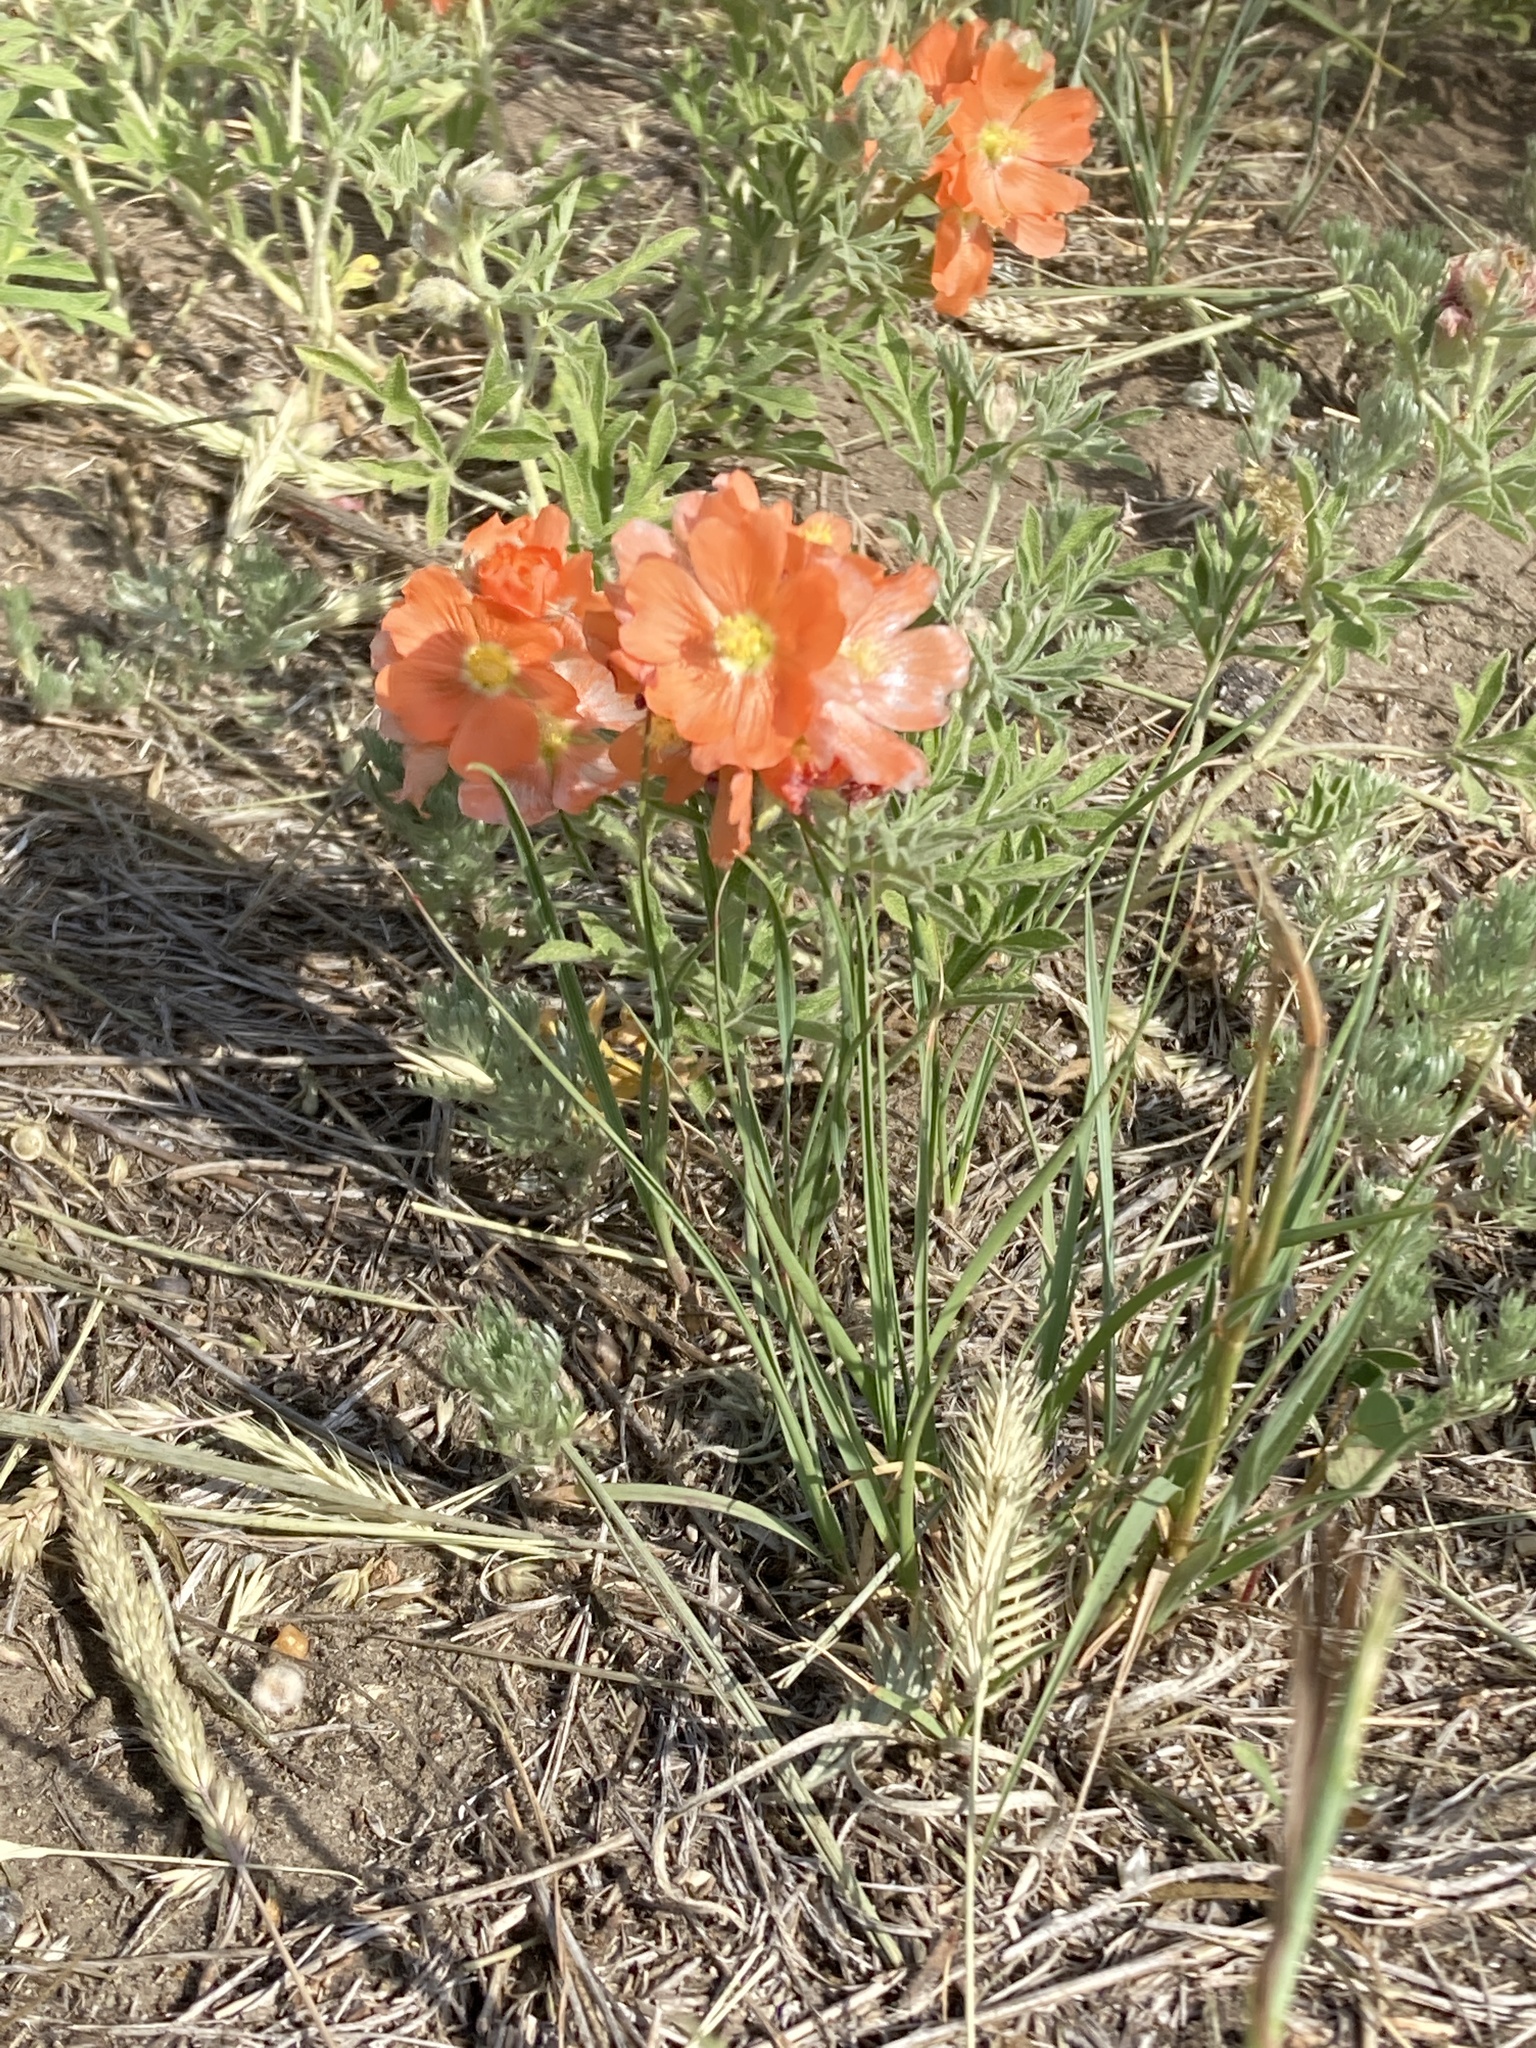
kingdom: Plantae
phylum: Tracheophyta
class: Magnoliopsida
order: Malvales
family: Malvaceae
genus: Sphaeralcea
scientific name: Sphaeralcea coccinea
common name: Moss-rose
